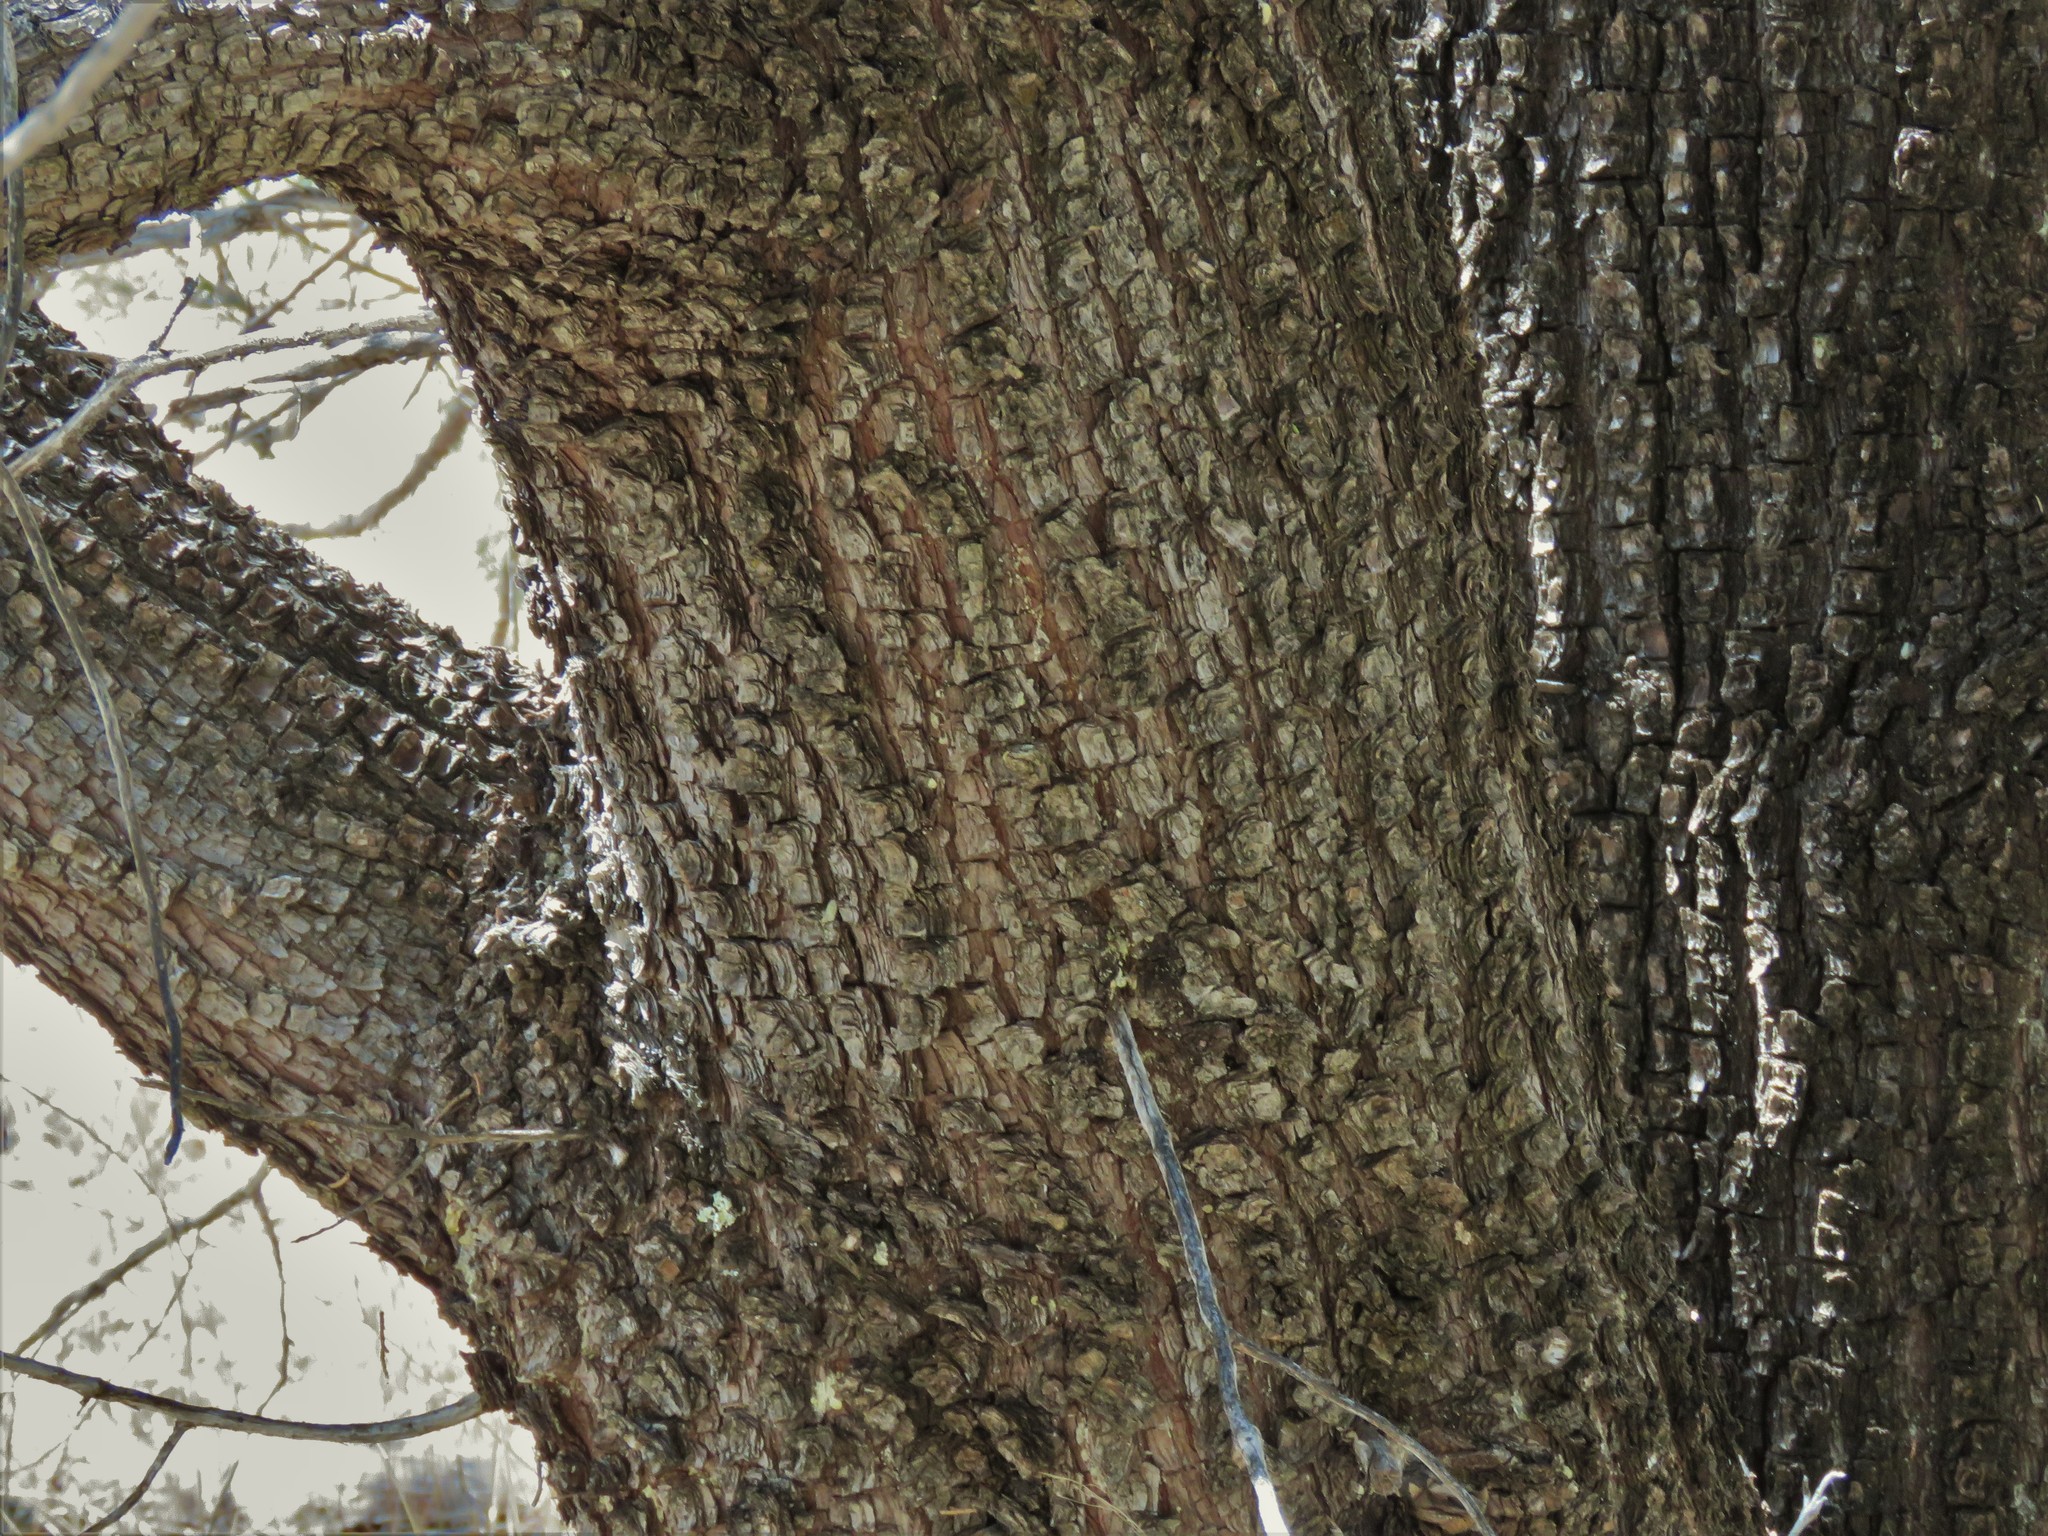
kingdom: Plantae
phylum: Tracheophyta
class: Pinopsida
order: Pinales
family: Cupressaceae
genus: Juniperus
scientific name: Juniperus deppeana
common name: Alligator juniper
